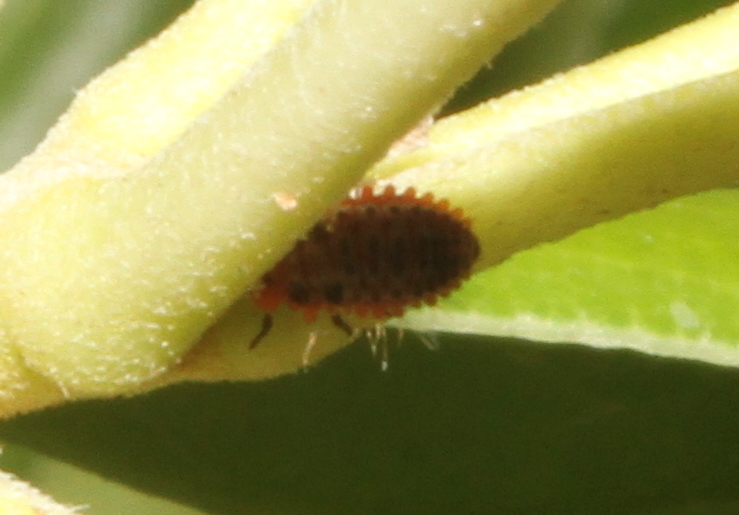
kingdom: Animalia
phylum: Arthropoda
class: Insecta
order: Coleoptera
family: Coccinellidae
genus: Novius
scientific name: Novius cardinalis
